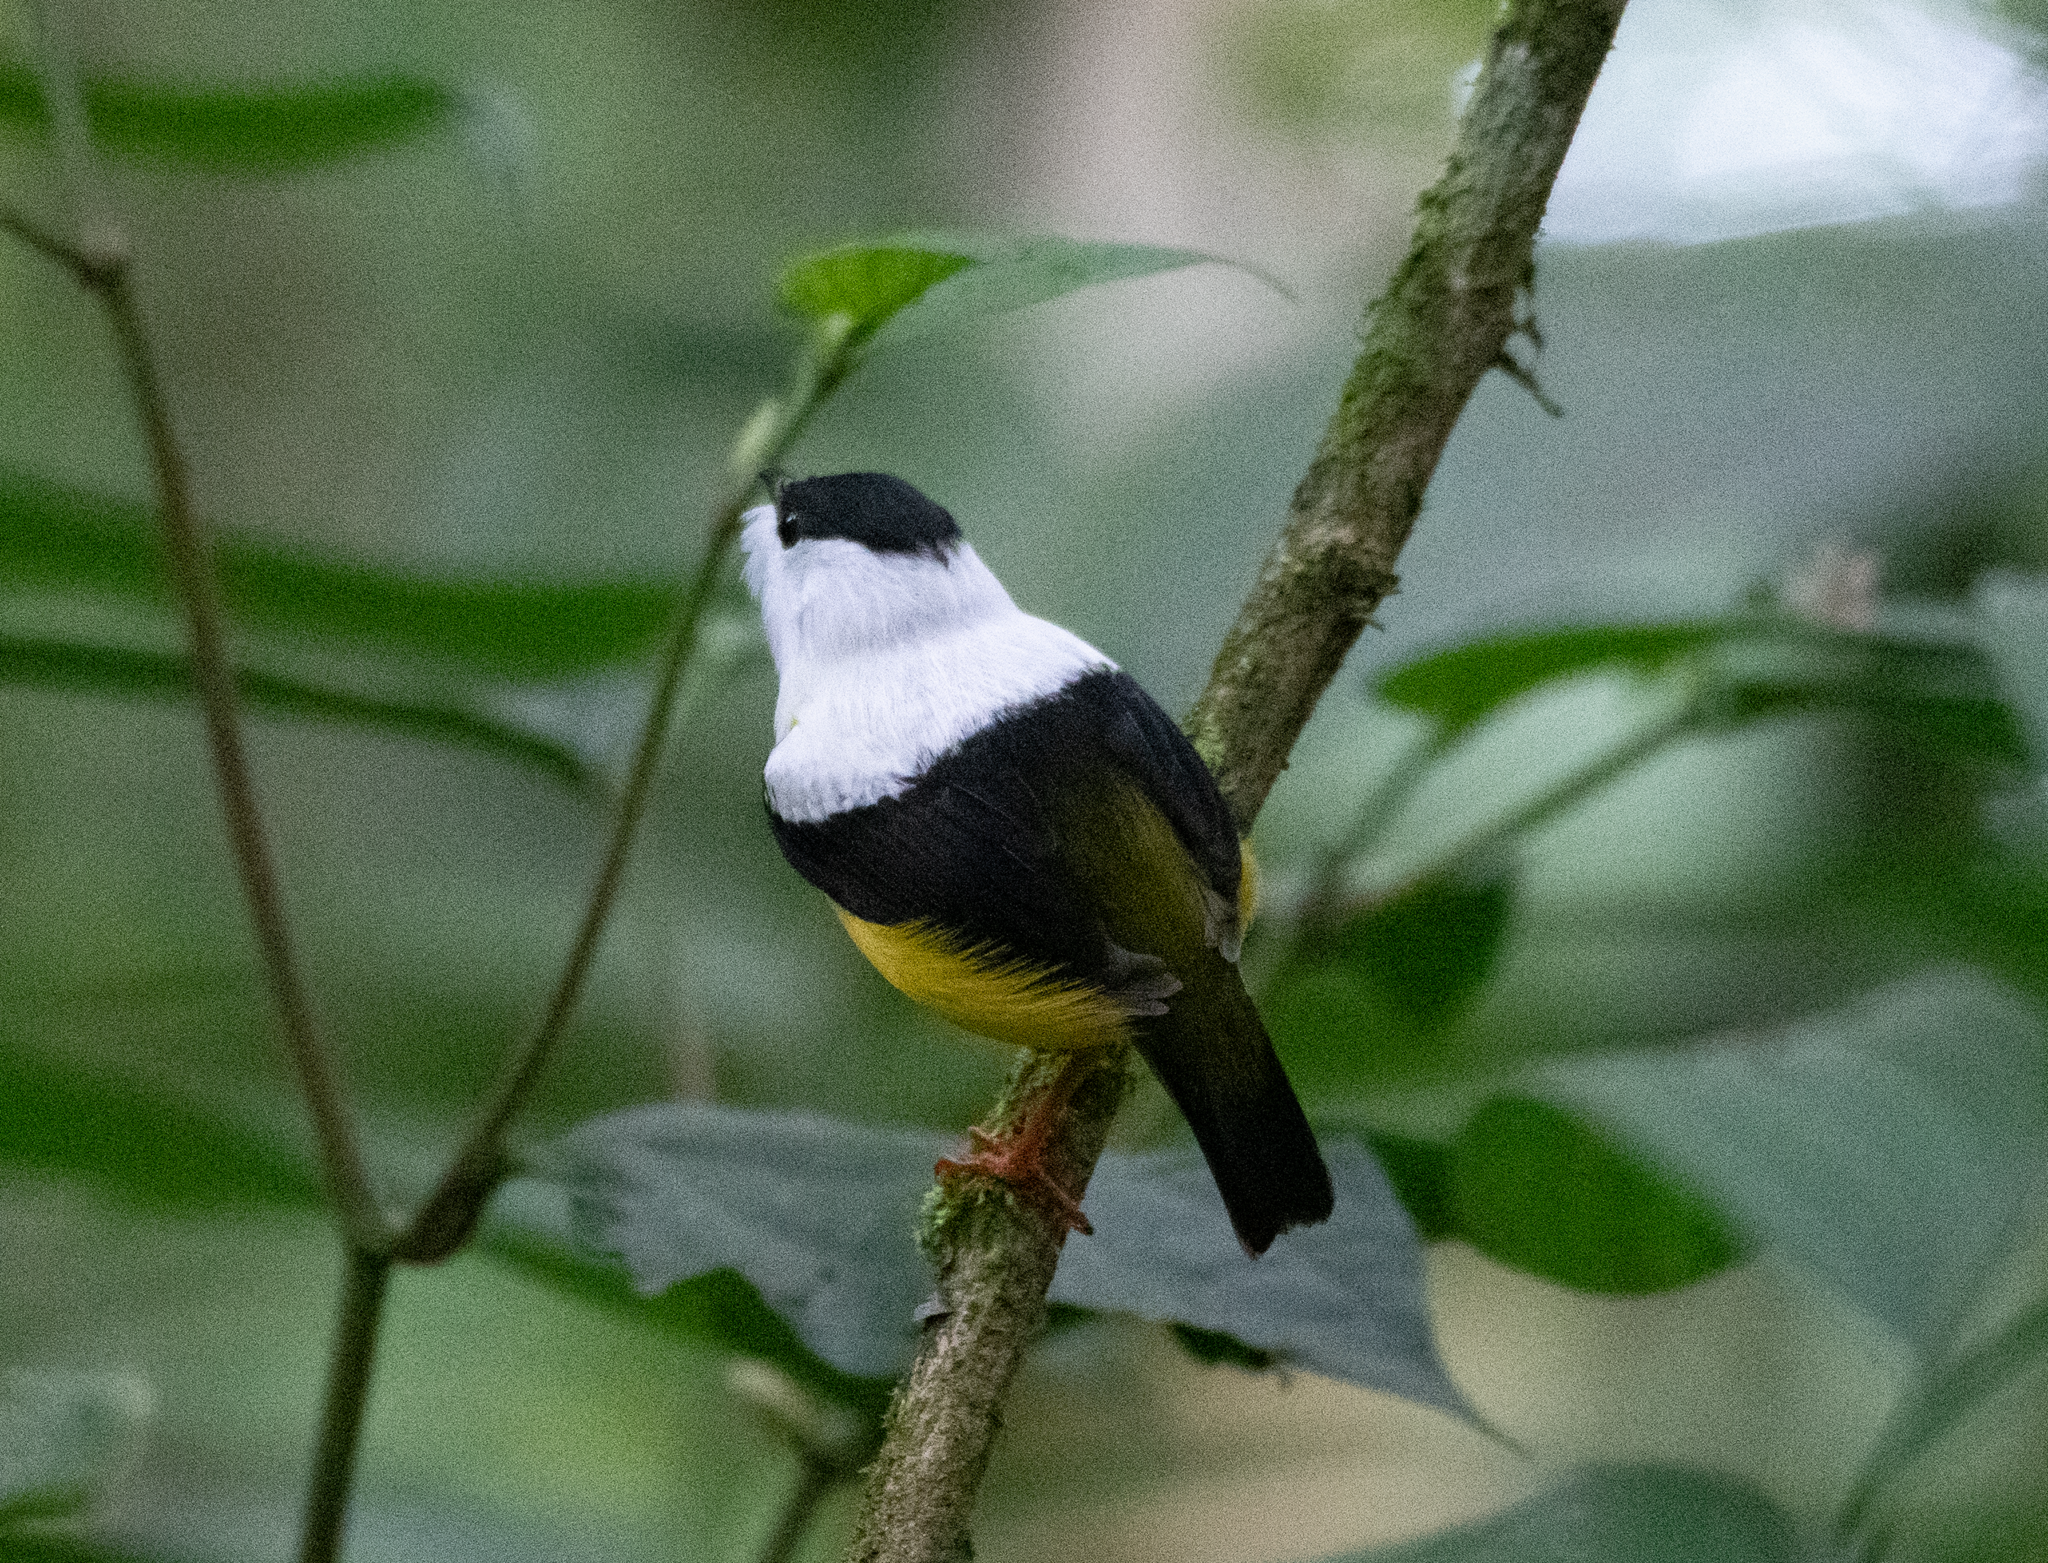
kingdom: Animalia
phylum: Chordata
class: Aves
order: Passeriformes
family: Pipridae
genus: Manacus
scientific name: Manacus candei
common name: White-collared manakin
